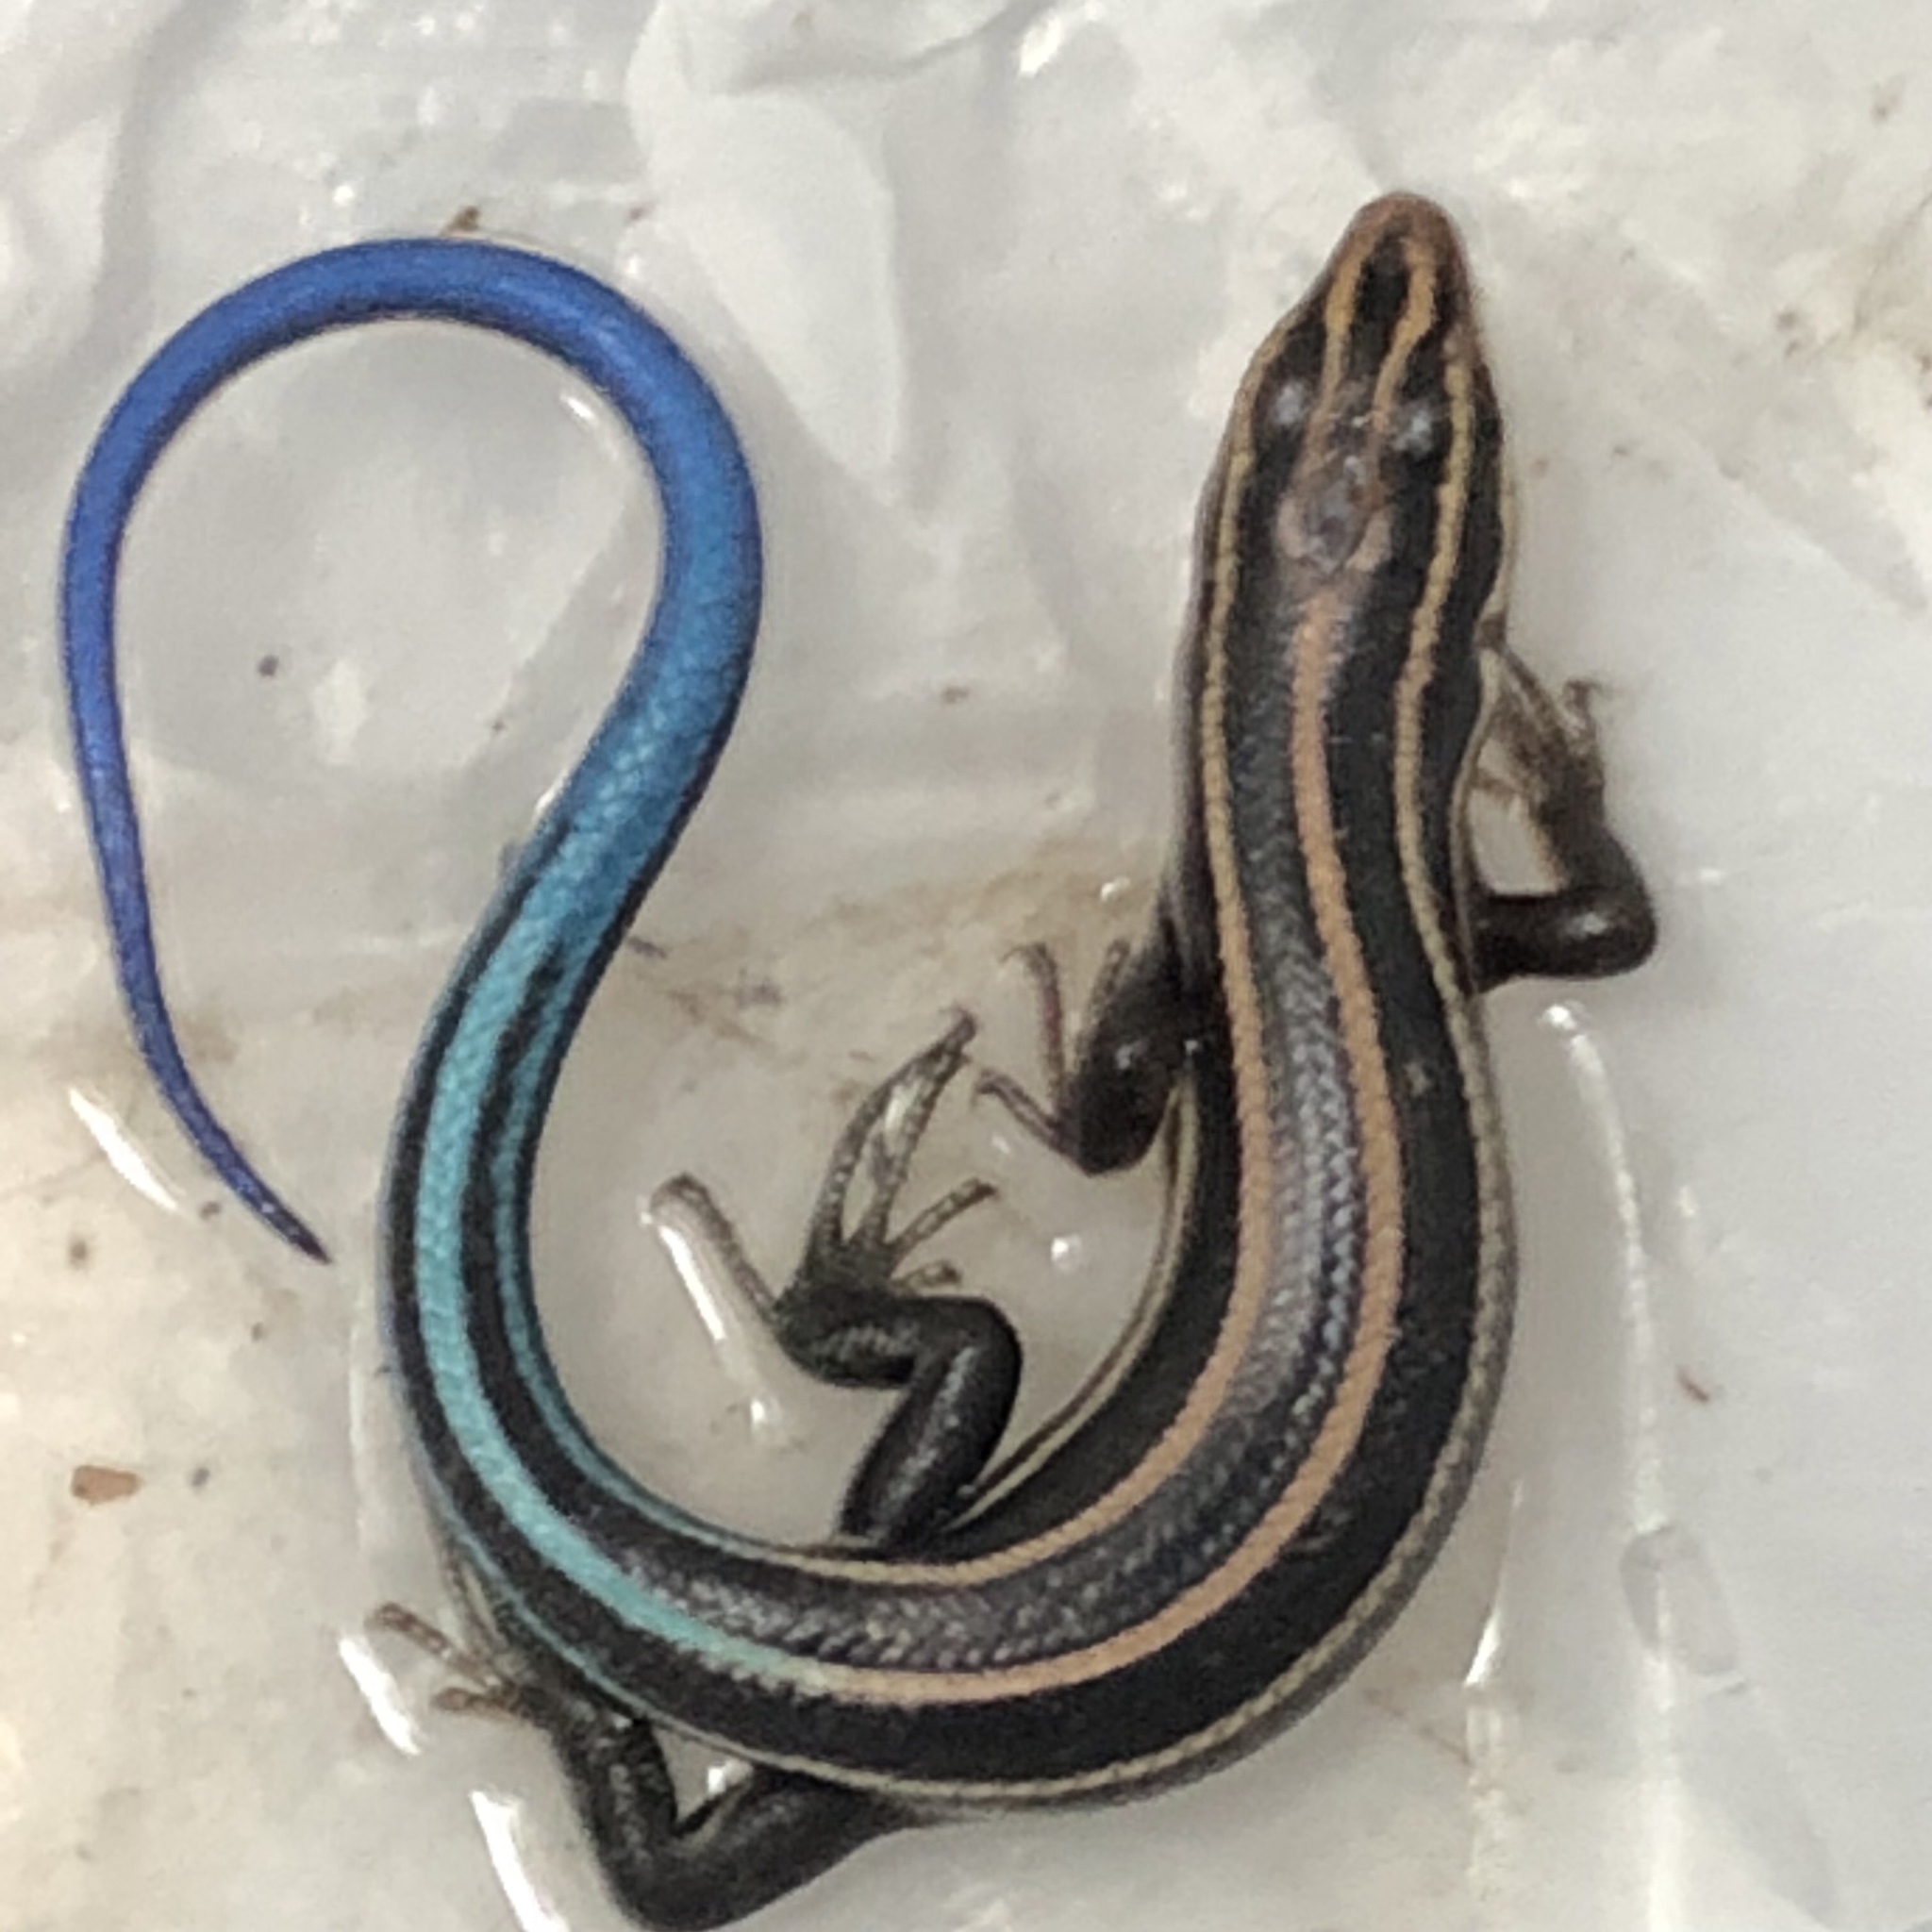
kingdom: Animalia
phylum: Chordata
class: Squamata
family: Scincidae
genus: Plestiodon
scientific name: Plestiodon fasciatus
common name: Five-lined skink
